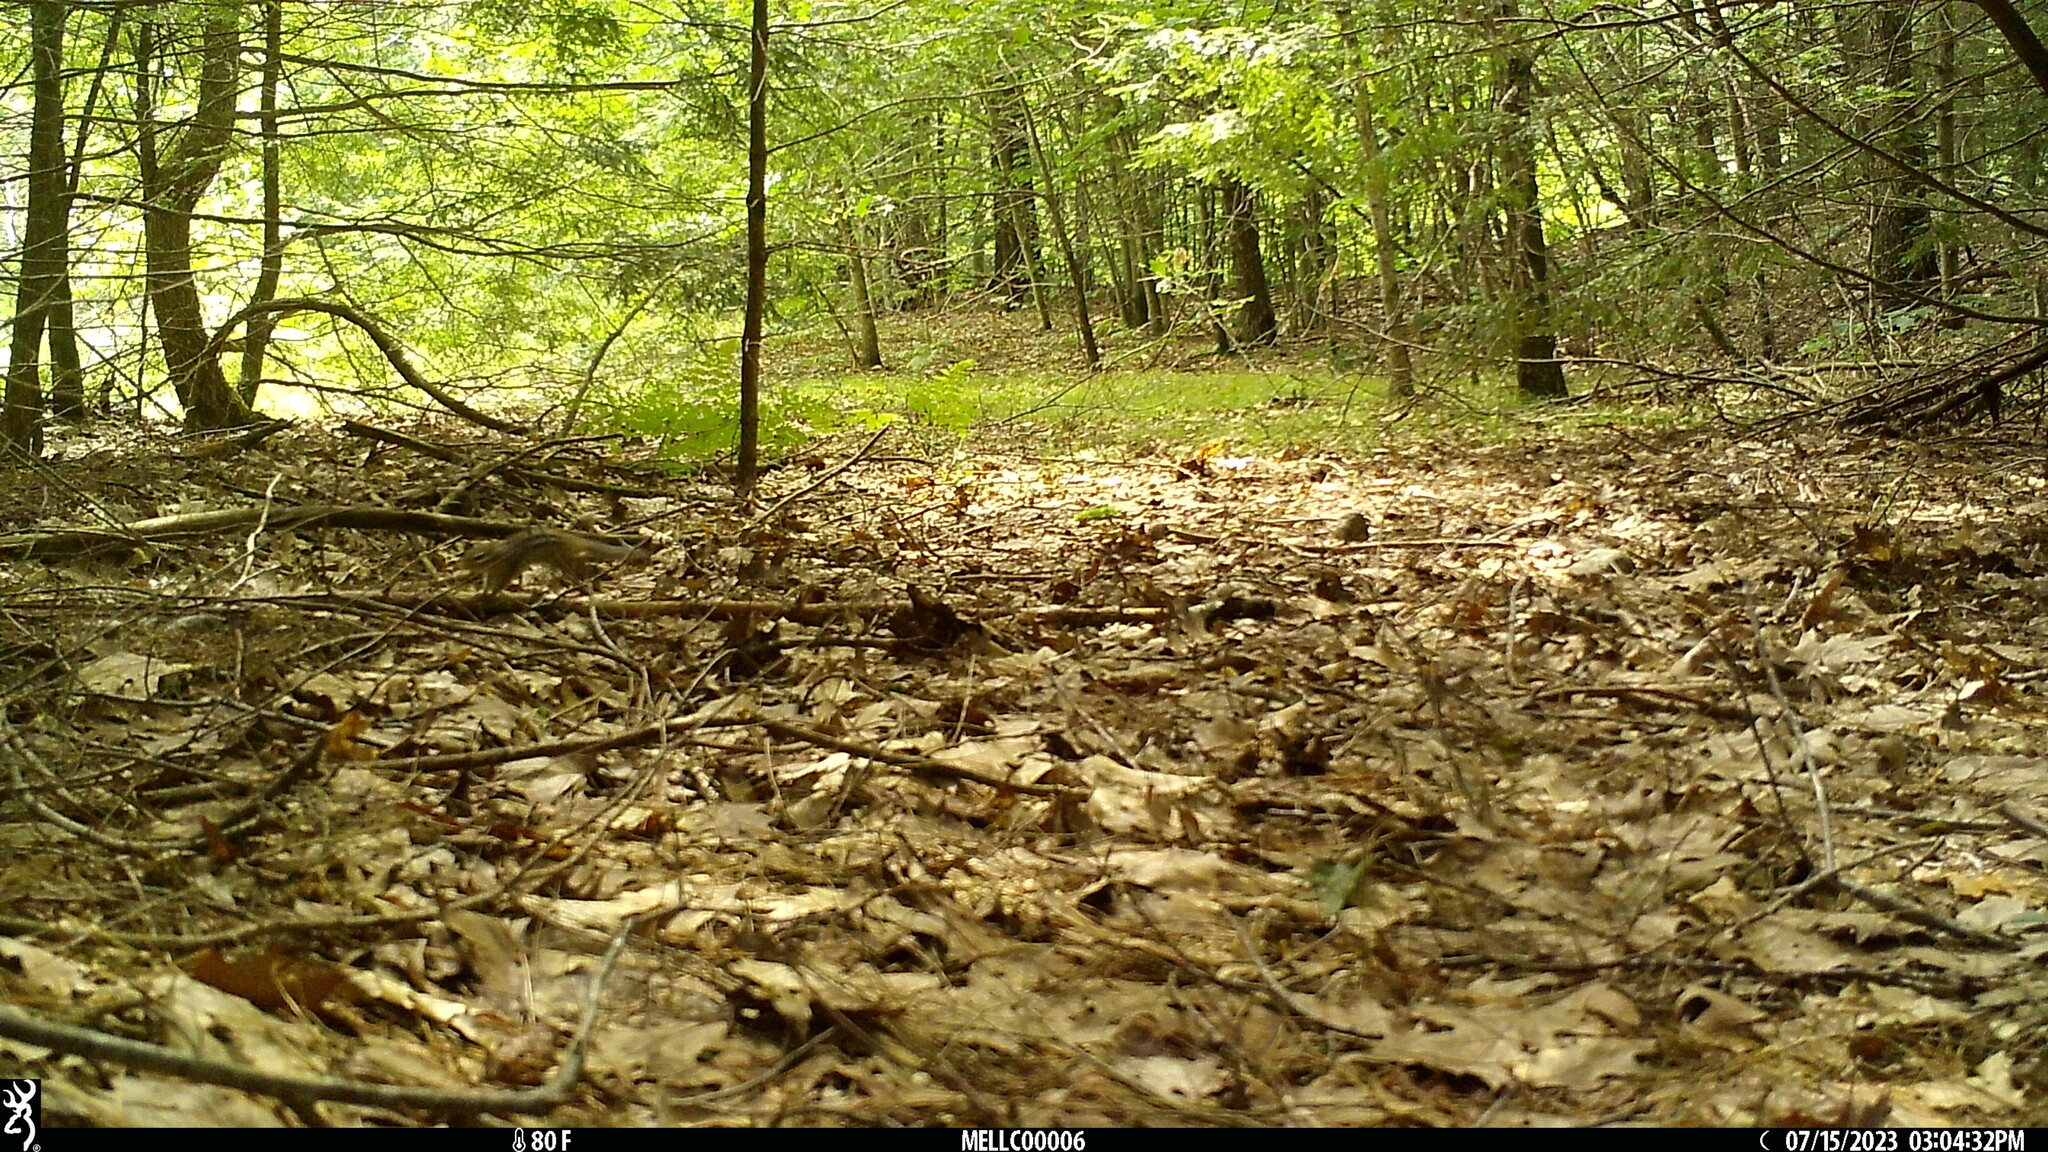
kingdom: Animalia
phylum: Chordata
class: Mammalia
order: Rodentia
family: Sciuridae
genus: Tamias
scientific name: Tamias striatus
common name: Eastern chipmunk
